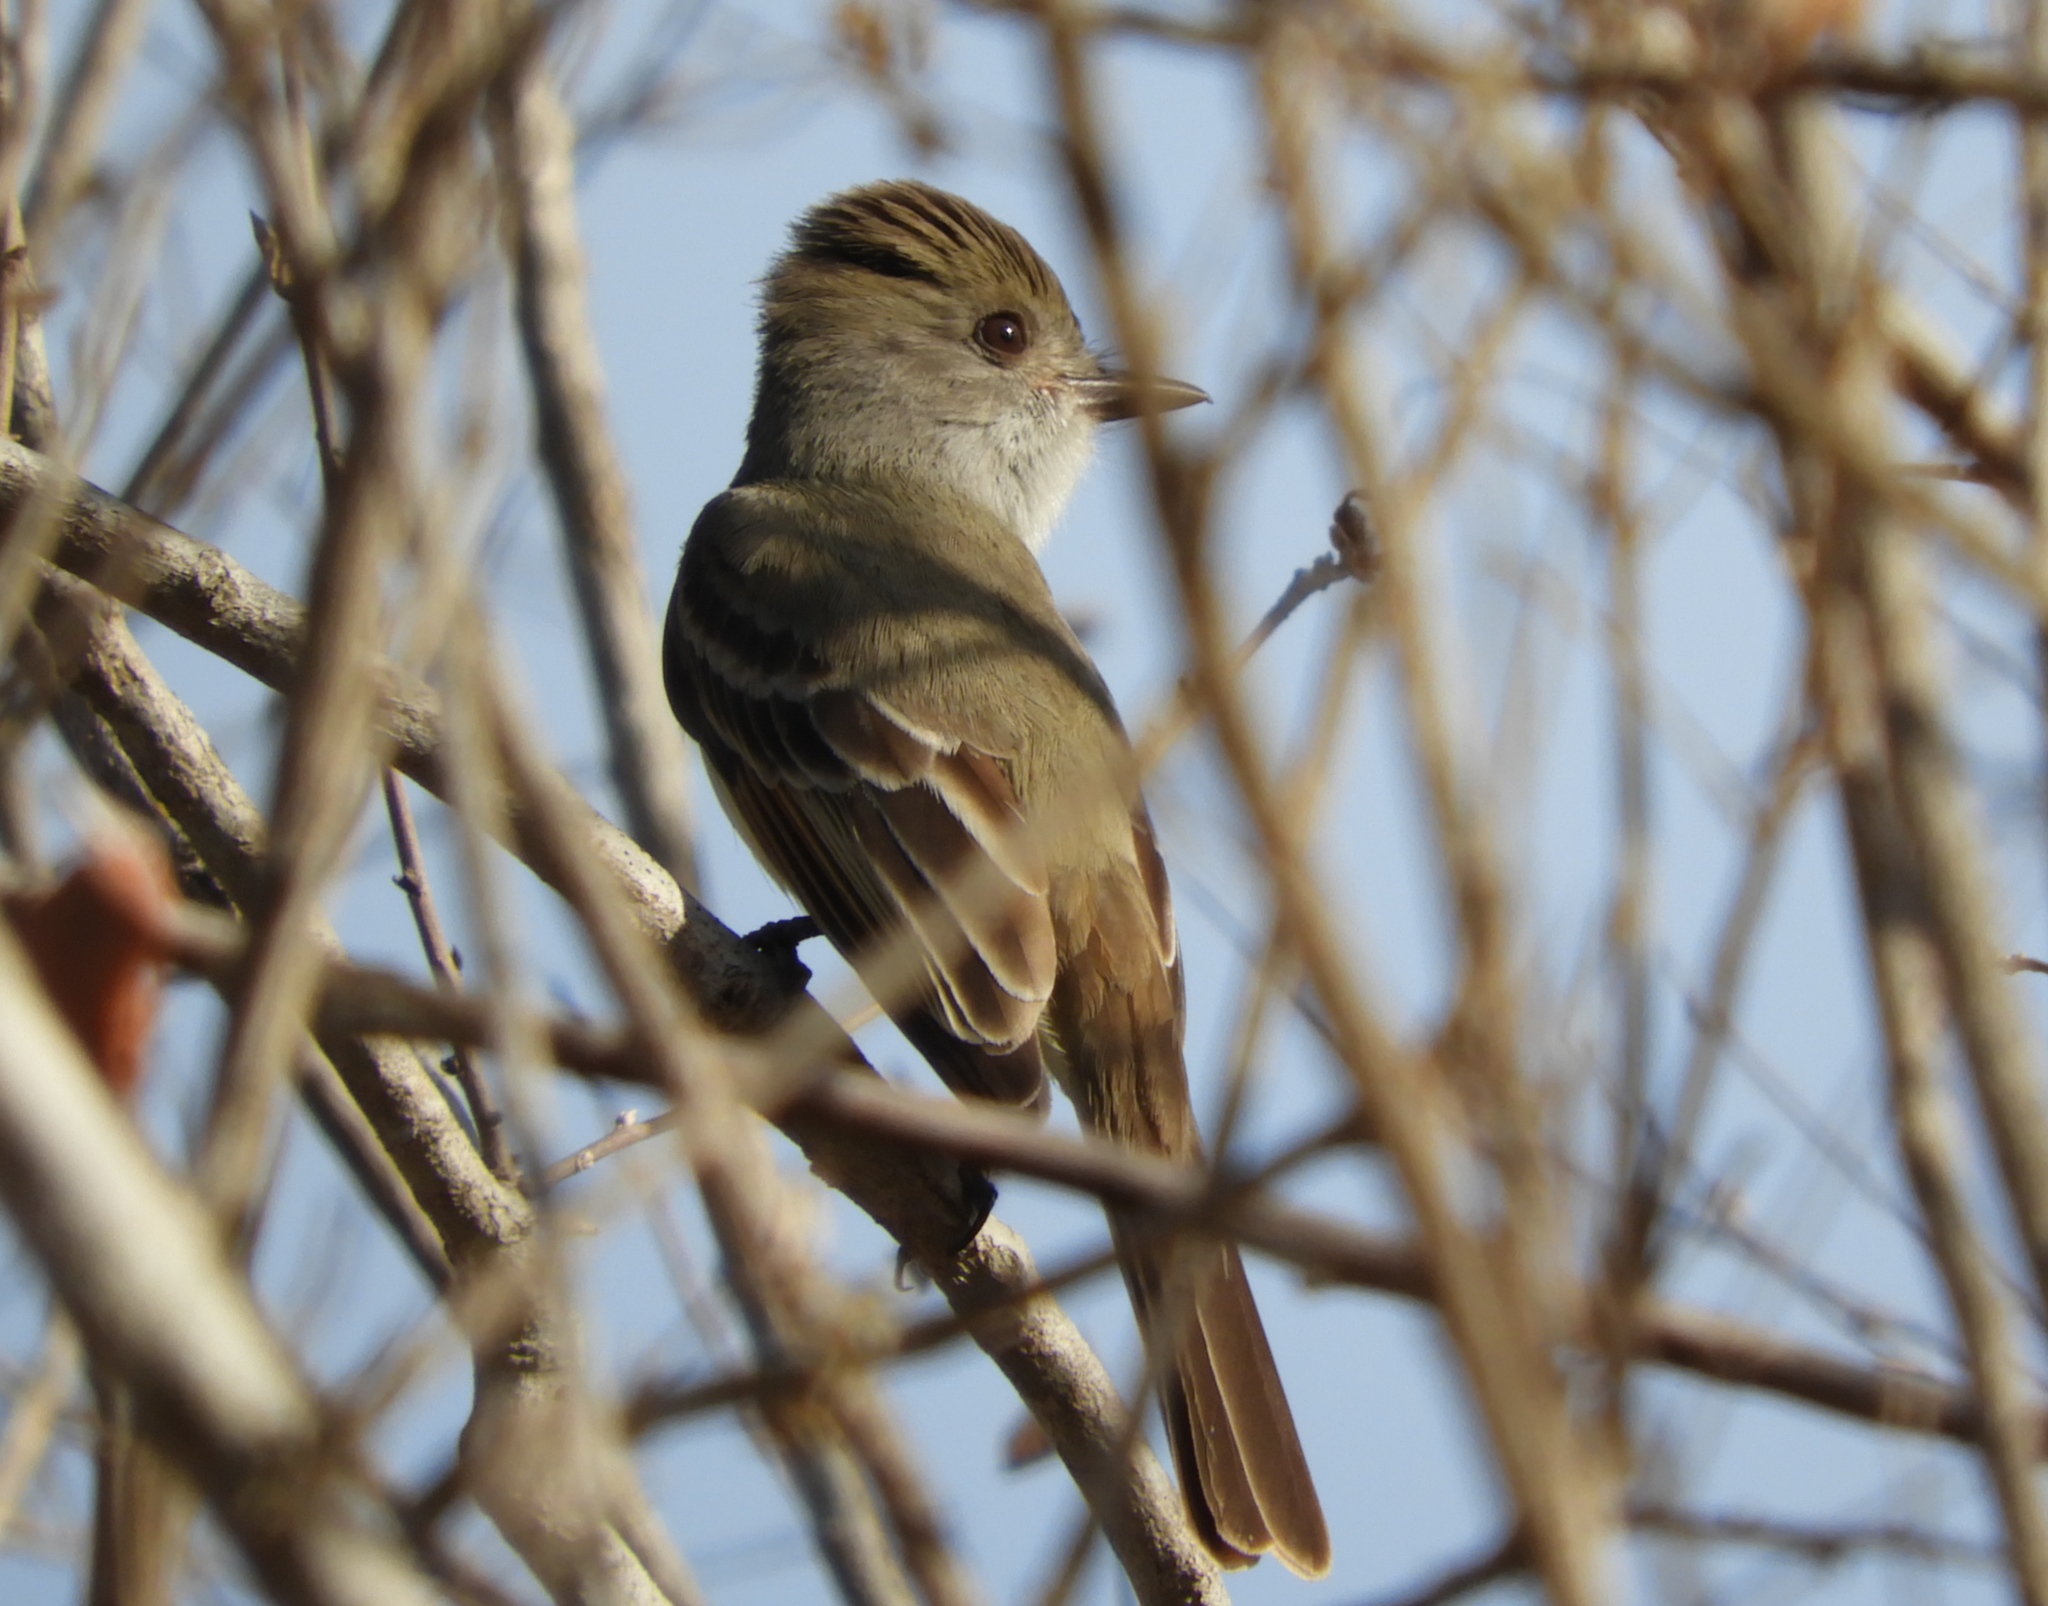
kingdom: Animalia
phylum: Chordata
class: Aves
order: Passeriformes
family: Tyrannidae
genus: Myiarchus
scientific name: Myiarchus
